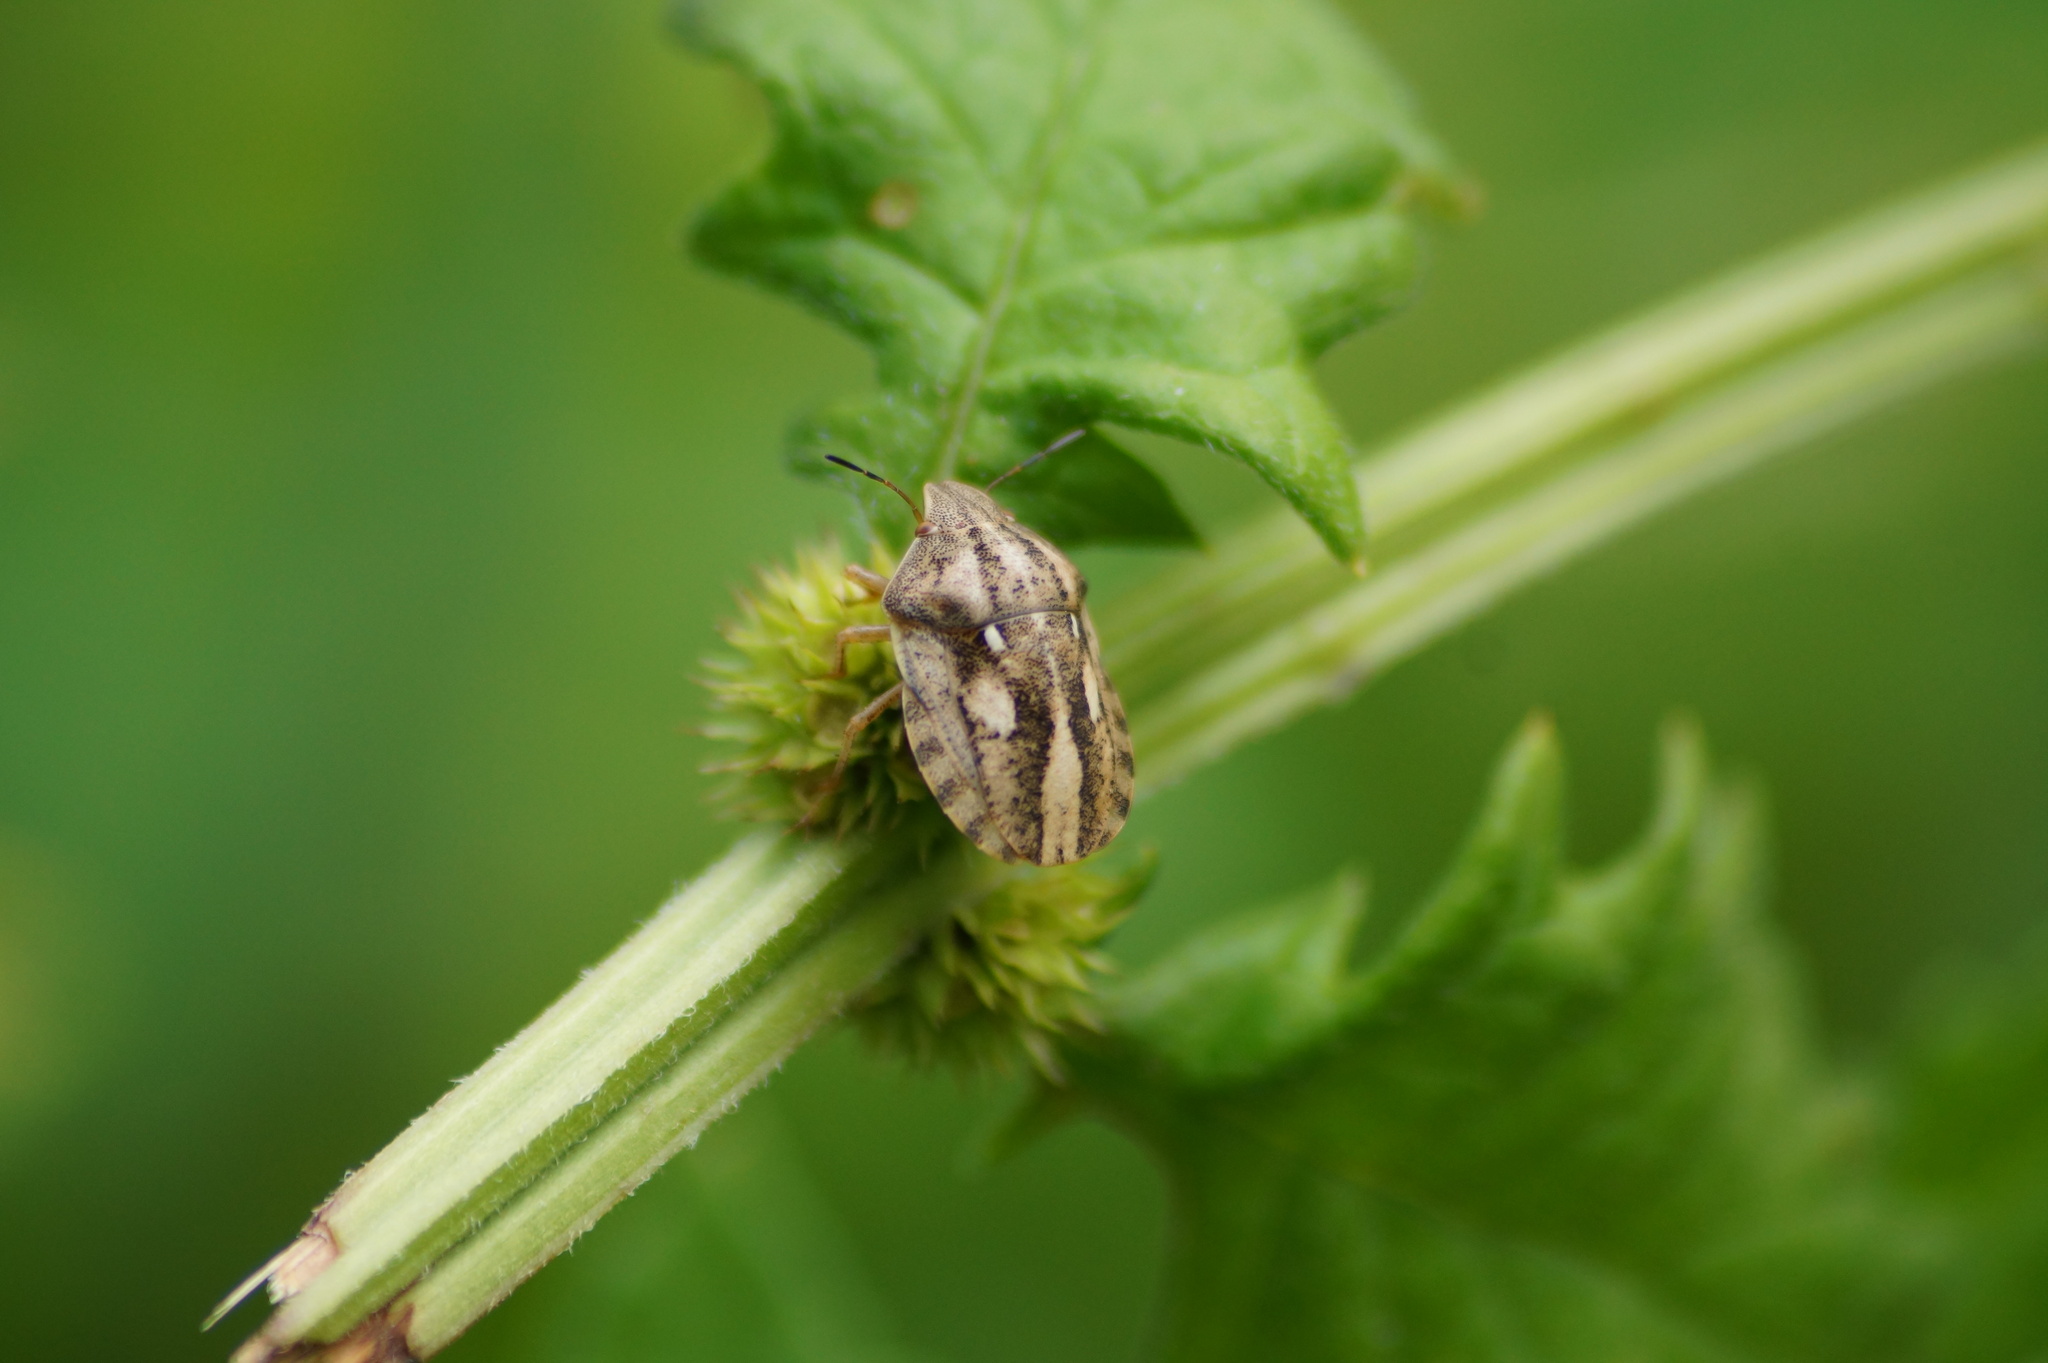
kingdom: Animalia
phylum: Arthropoda
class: Insecta
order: Hemiptera
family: Scutelleridae
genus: Eurygaster
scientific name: Eurygaster testudinaria
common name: Tortoise bug
